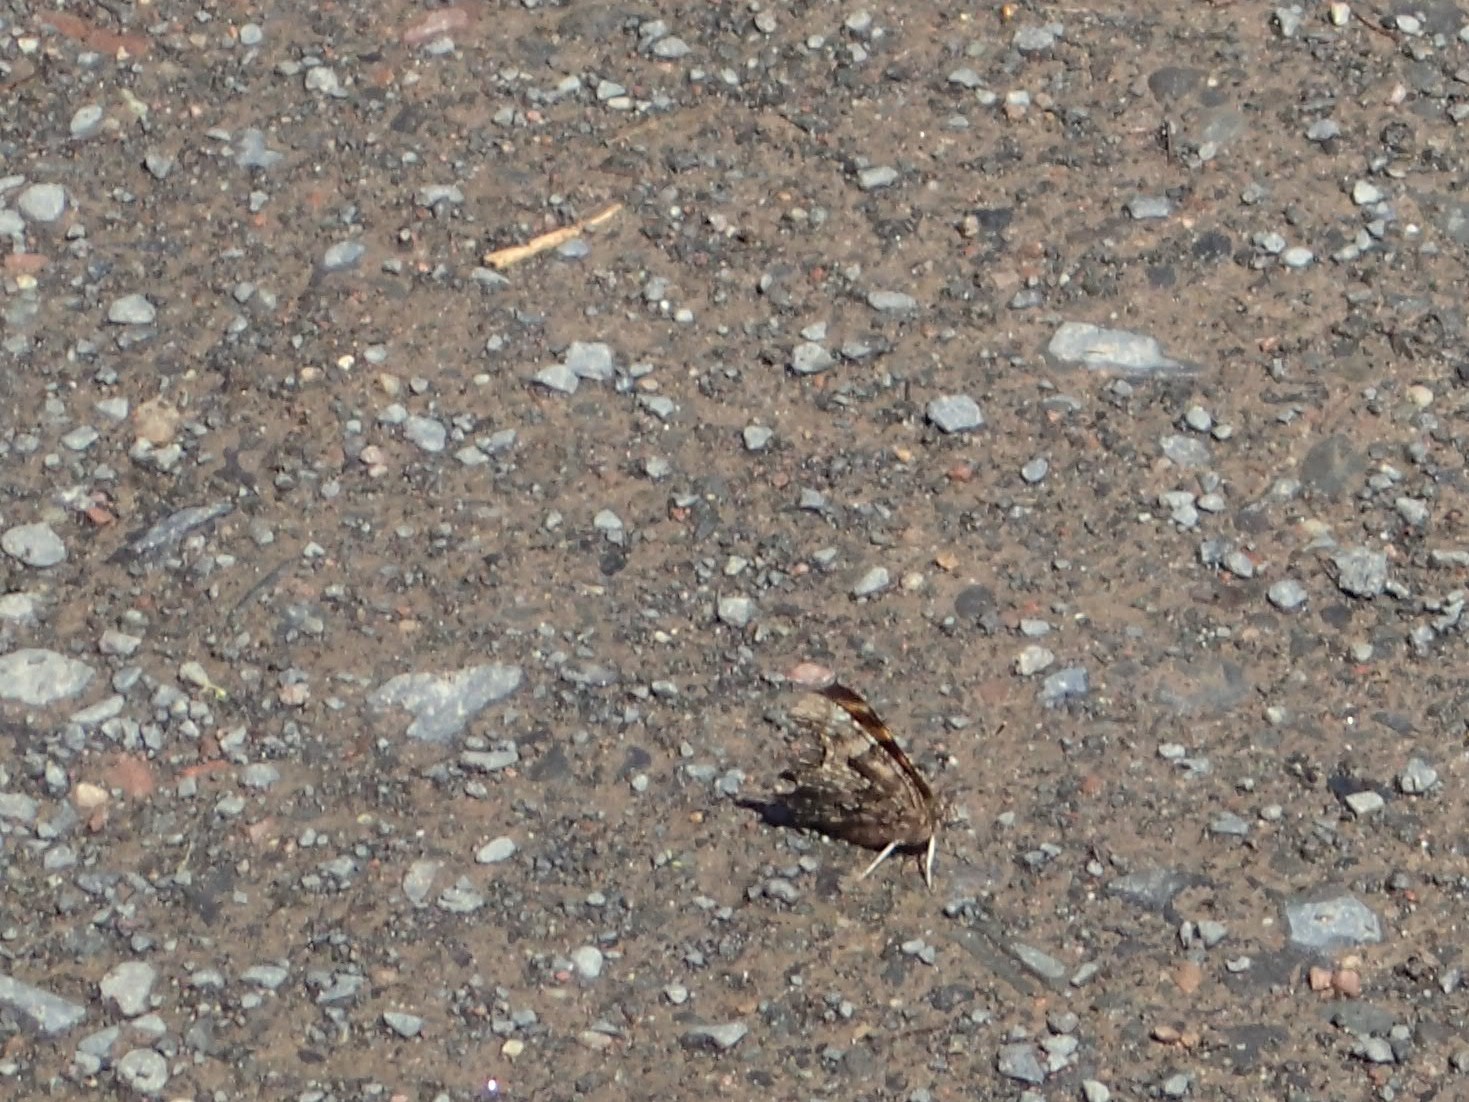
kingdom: Animalia
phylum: Arthropoda
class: Insecta
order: Lepidoptera
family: Nymphalidae
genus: Polygonia
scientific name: Polygonia faunus
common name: Green comma
